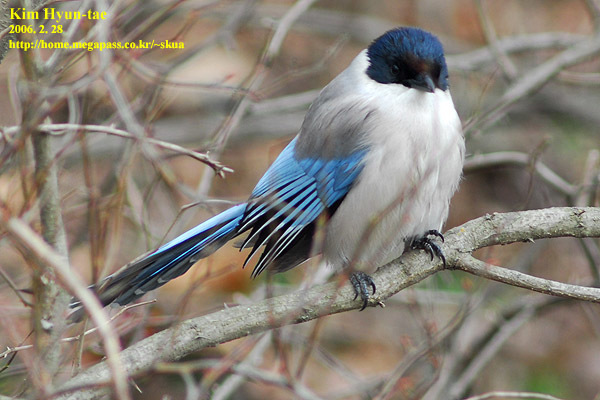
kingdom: Animalia
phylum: Chordata
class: Aves
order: Passeriformes
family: Corvidae
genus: Cyanopica
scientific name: Cyanopica cyanus
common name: Azure-winged magpie
